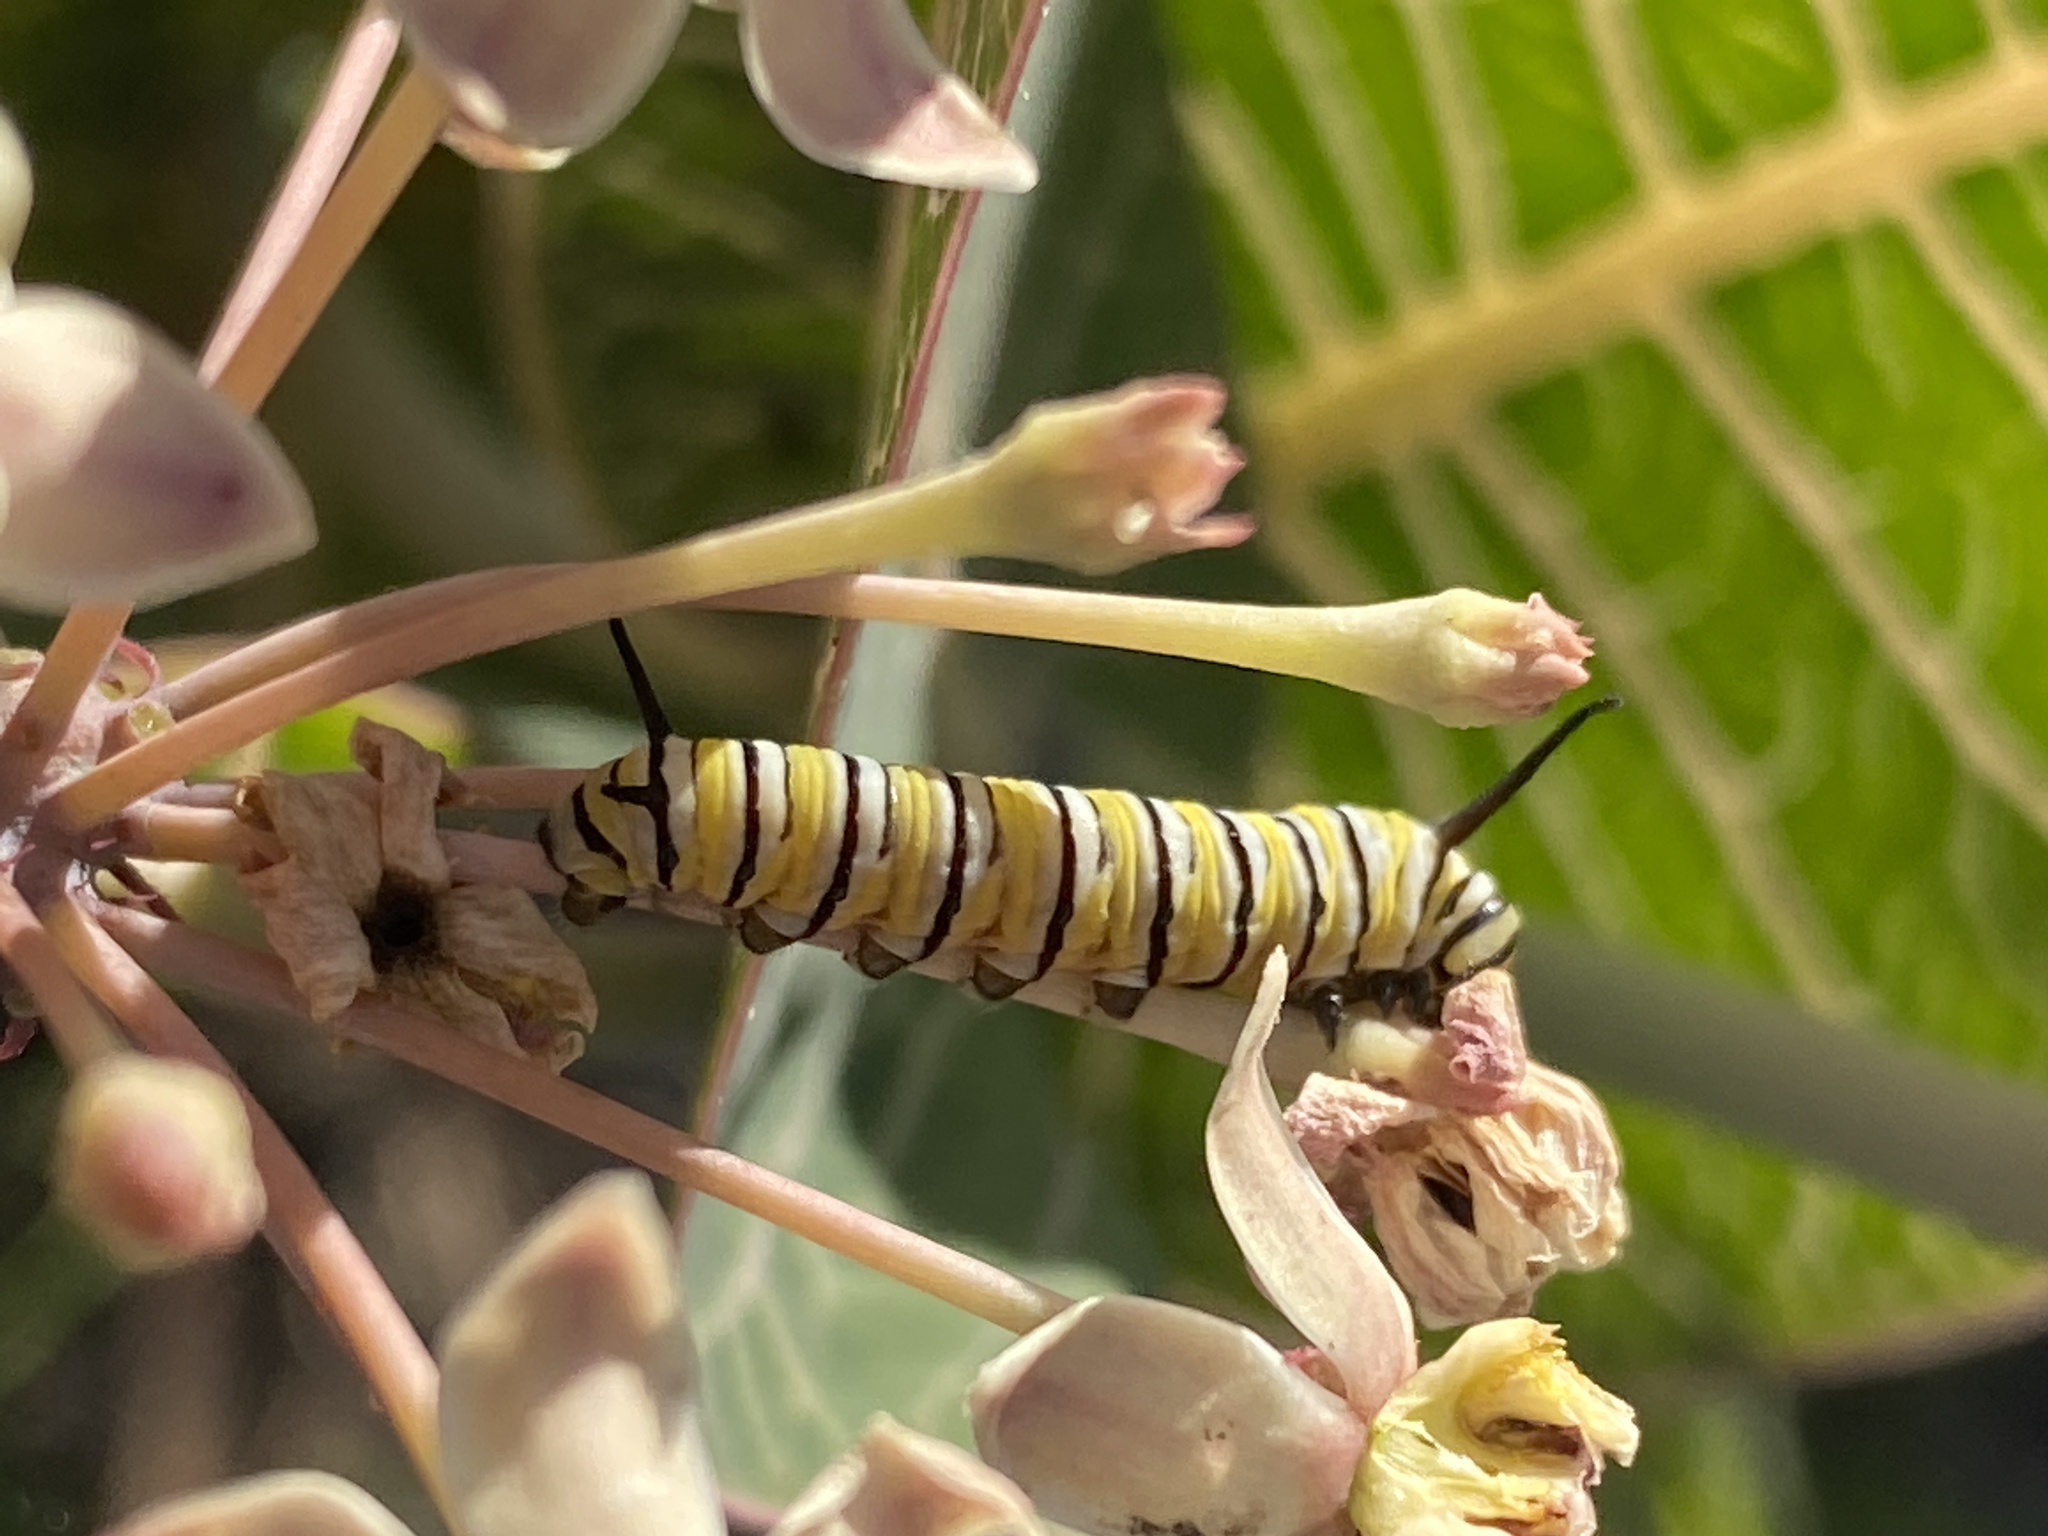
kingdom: Animalia
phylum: Arthropoda
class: Insecta
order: Lepidoptera
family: Nymphalidae
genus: Danaus
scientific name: Danaus plexippus
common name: Monarch
